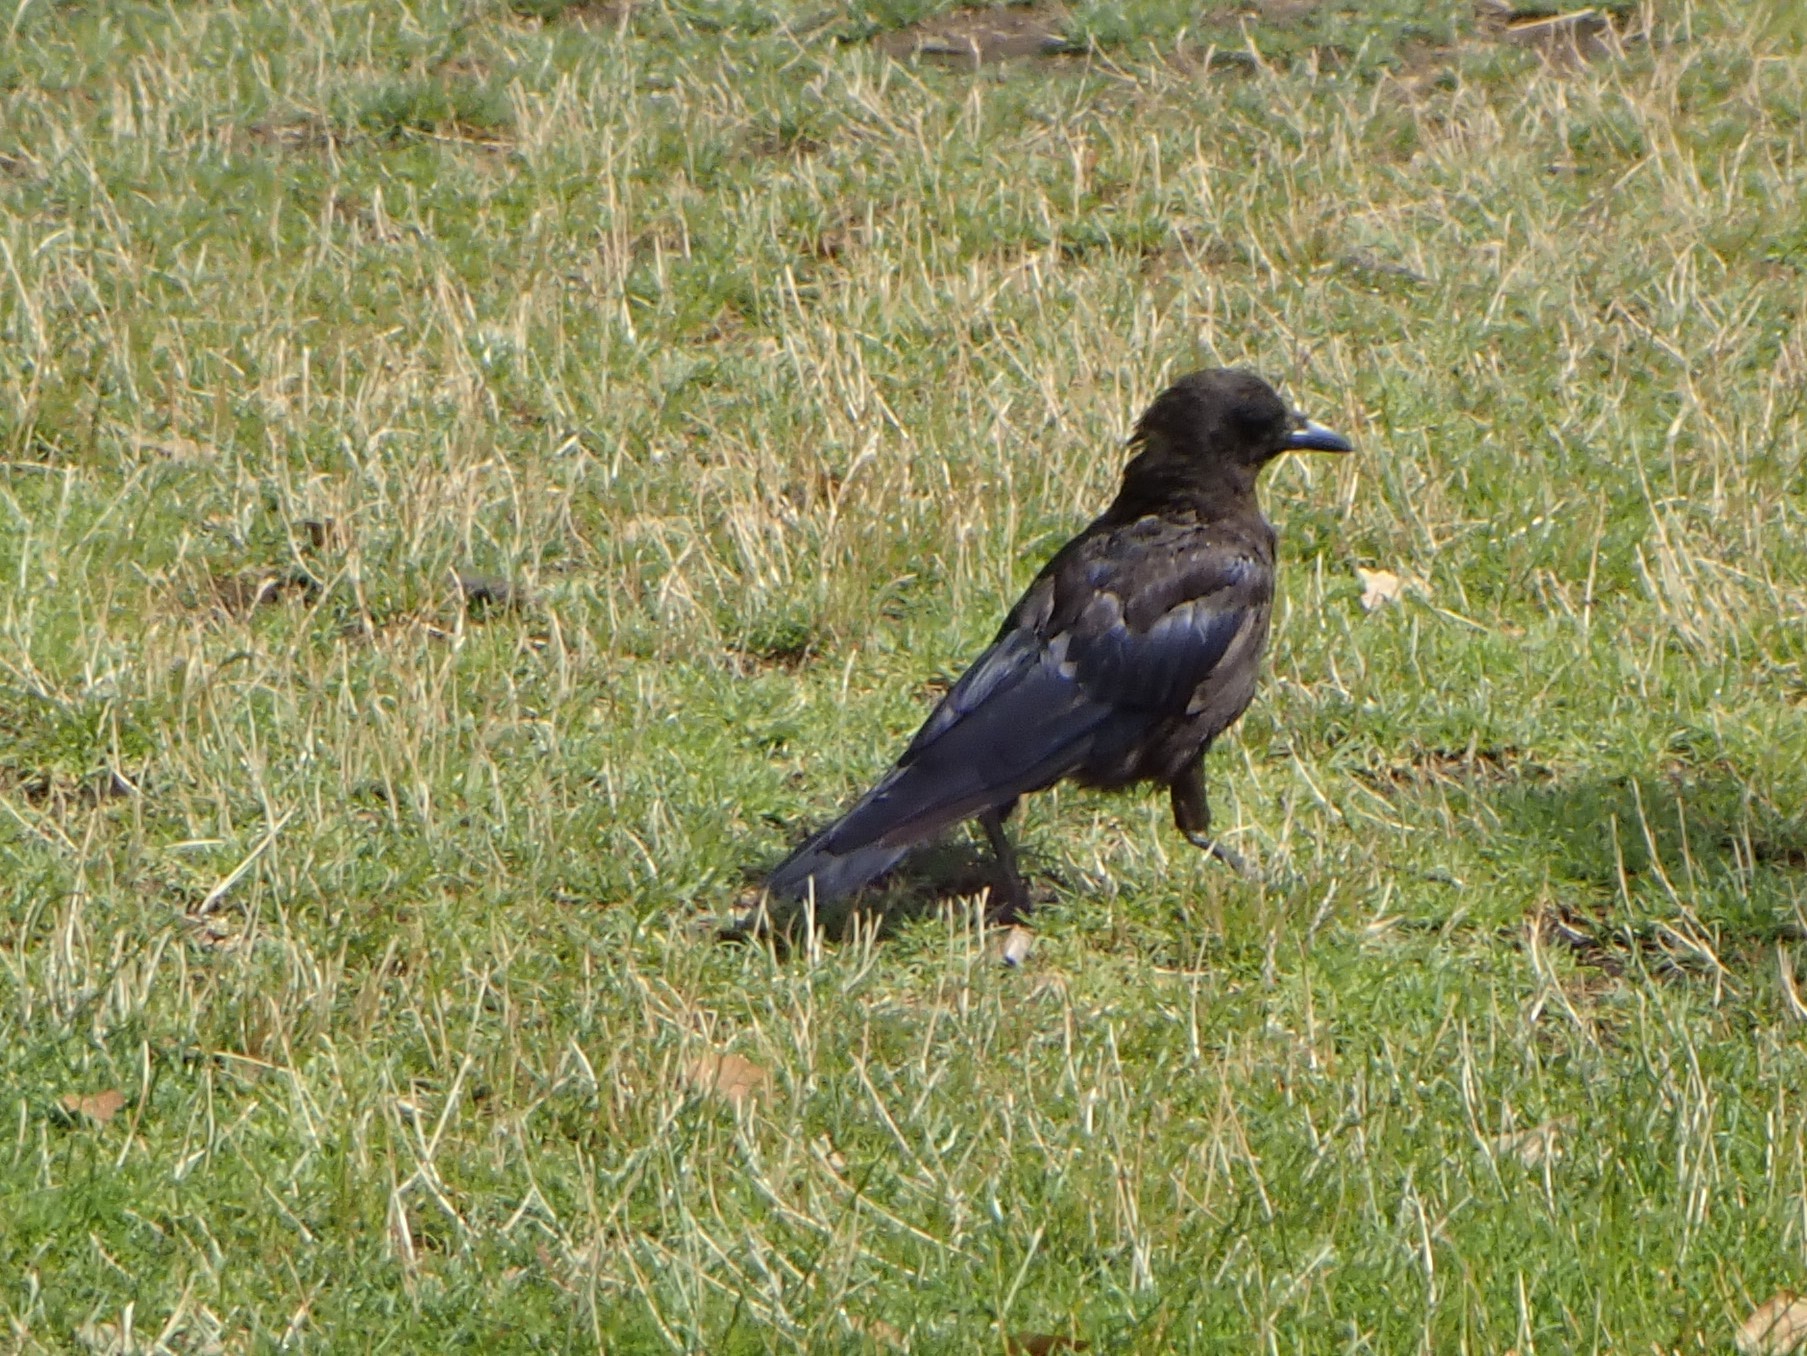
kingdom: Animalia
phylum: Chordata
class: Aves
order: Passeriformes
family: Corvidae
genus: Corvus
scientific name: Corvus brachyrhynchos
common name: American crow
